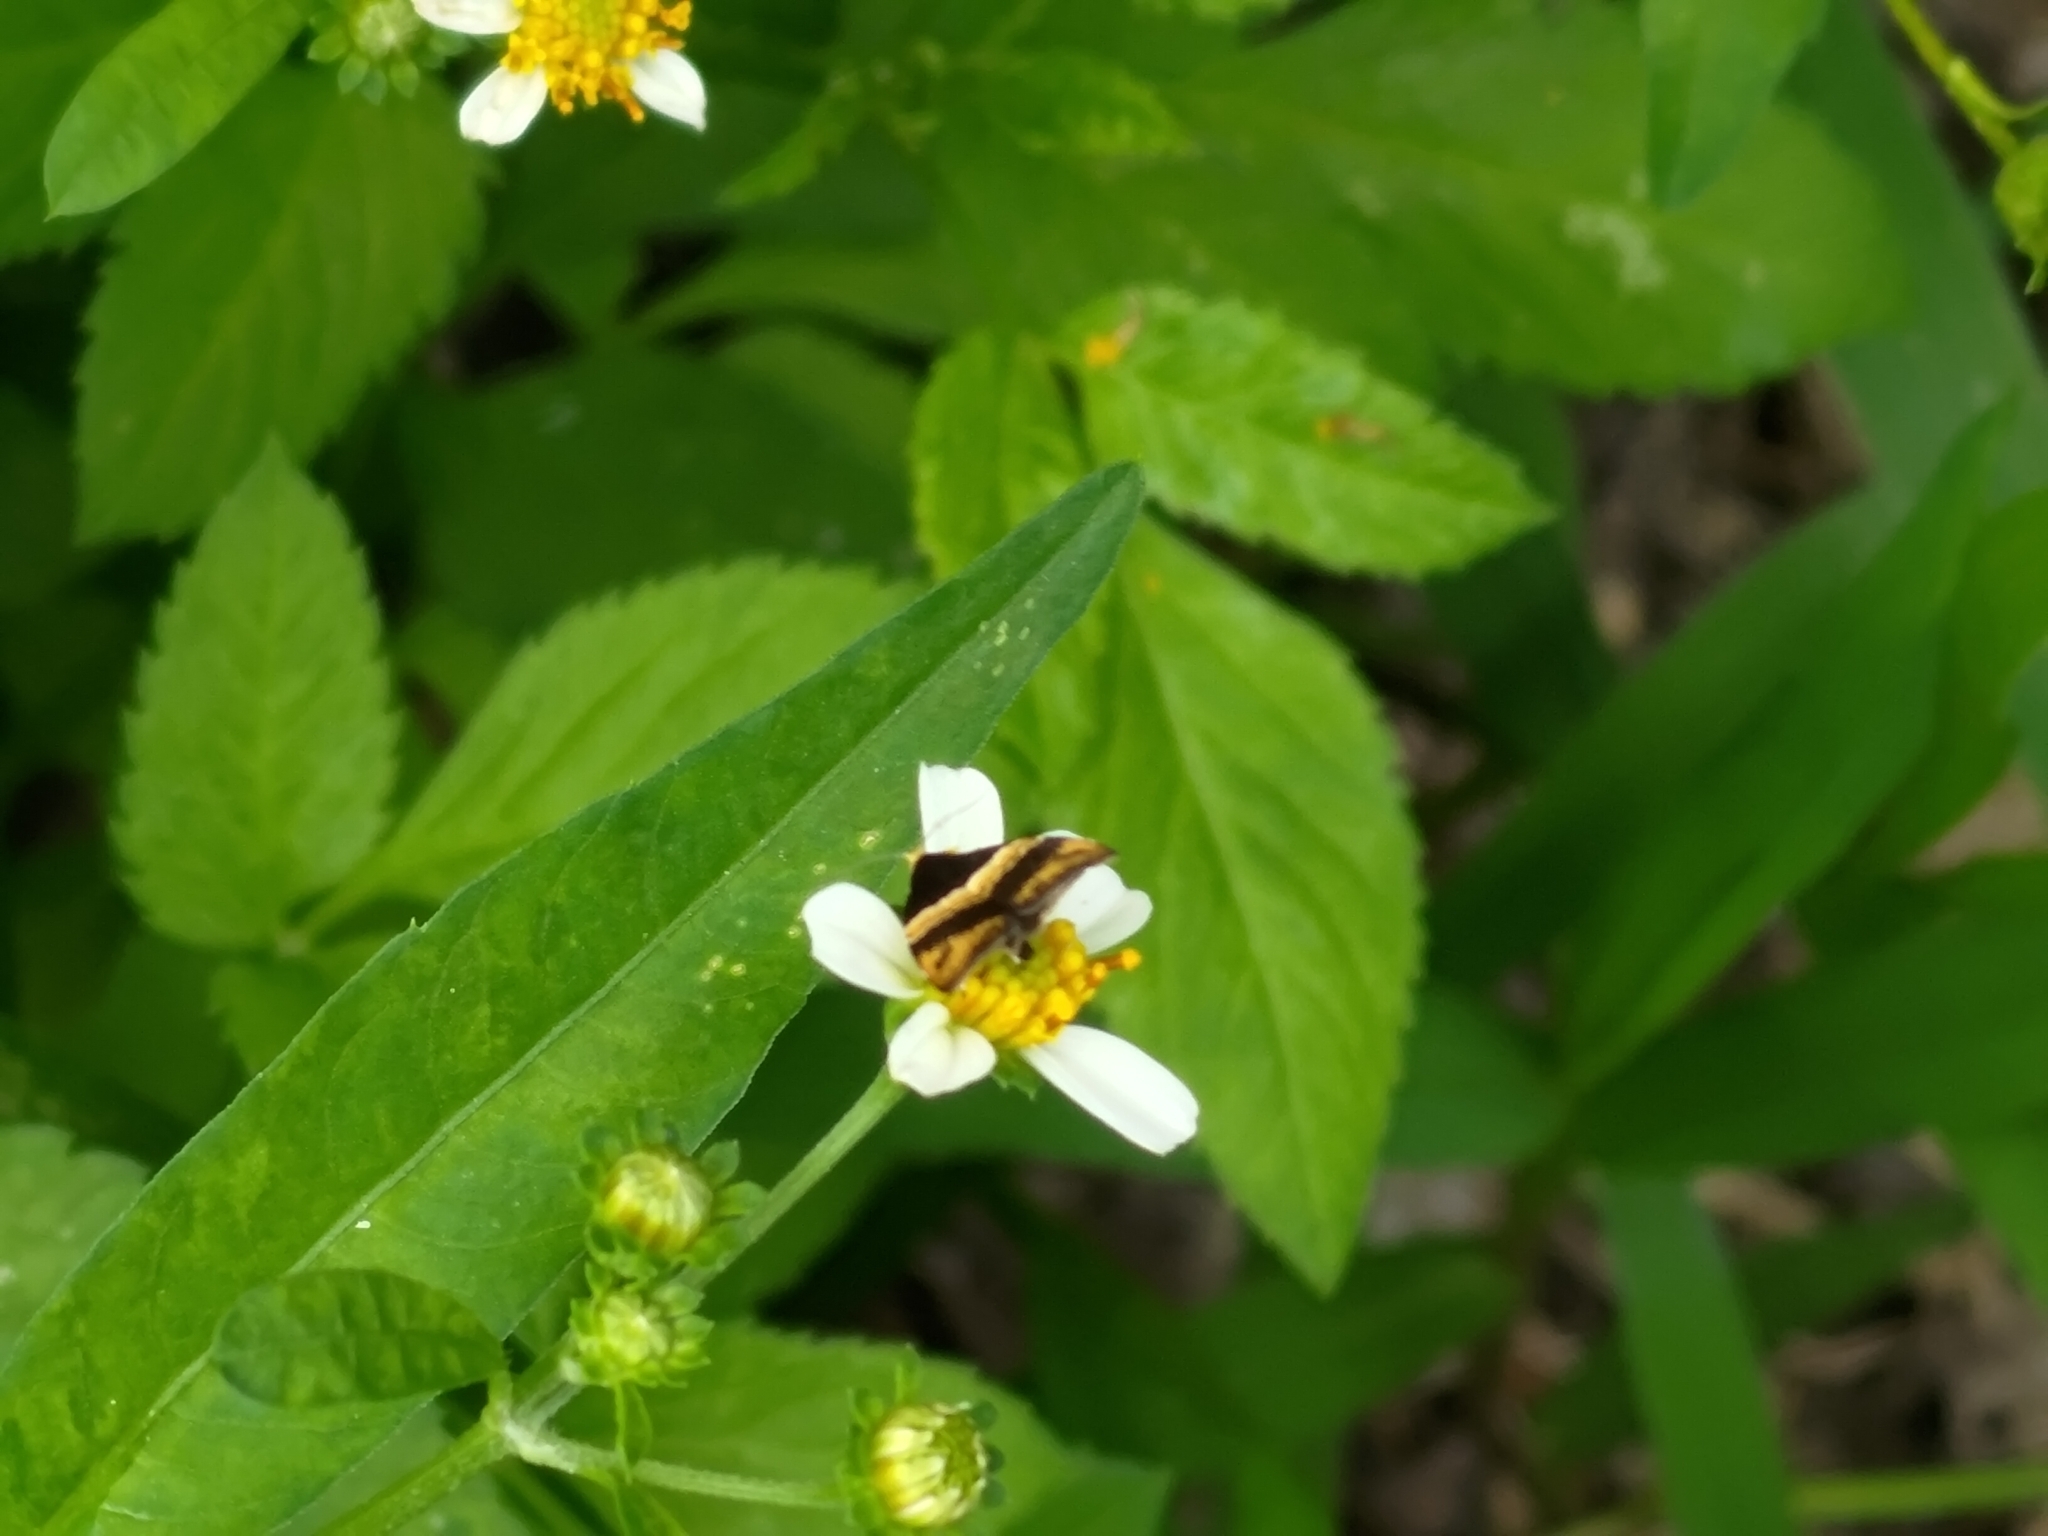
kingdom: Animalia
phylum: Arthropoda
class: Insecta
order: Lepidoptera
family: Choreutidae
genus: Choreutis
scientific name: Choreutis basalis
